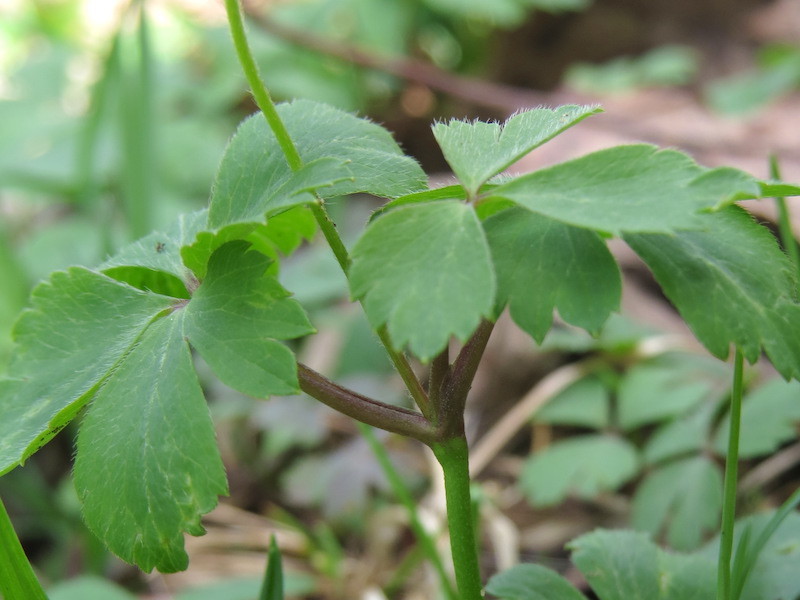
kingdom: Plantae
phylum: Tracheophyta
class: Magnoliopsida
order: Ranunculales
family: Ranunculaceae
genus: Anemone
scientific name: Anemone quinquefolia
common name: Wood anemone
